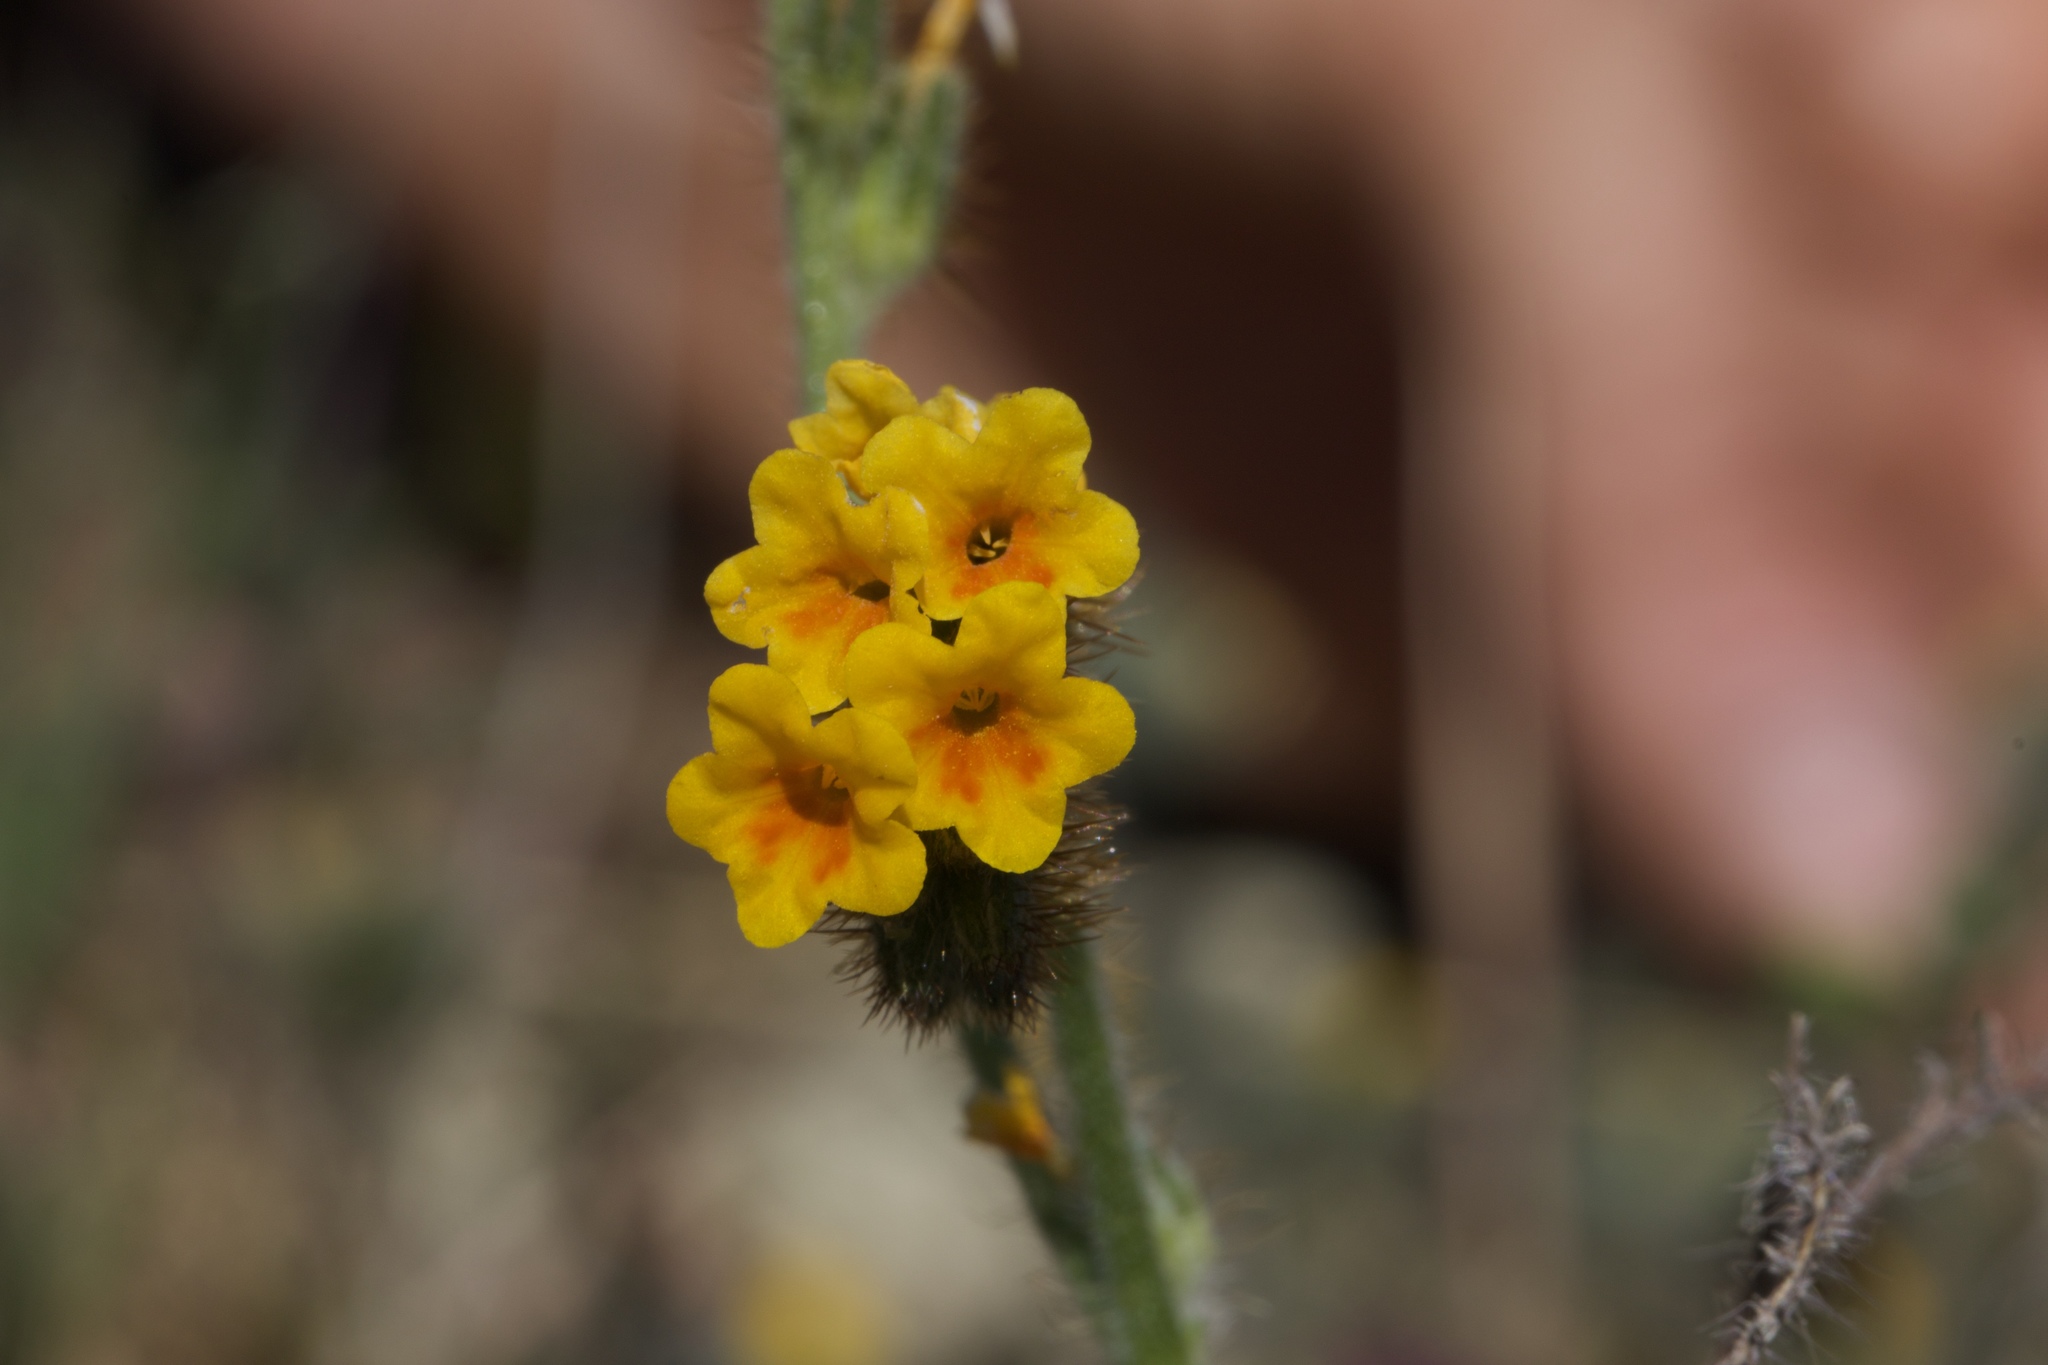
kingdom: Plantae
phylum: Tracheophyta
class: Magnoliopsida
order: Boraginales
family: Boraginaceae
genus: Amsinckia
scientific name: Amsinckia lunaris
